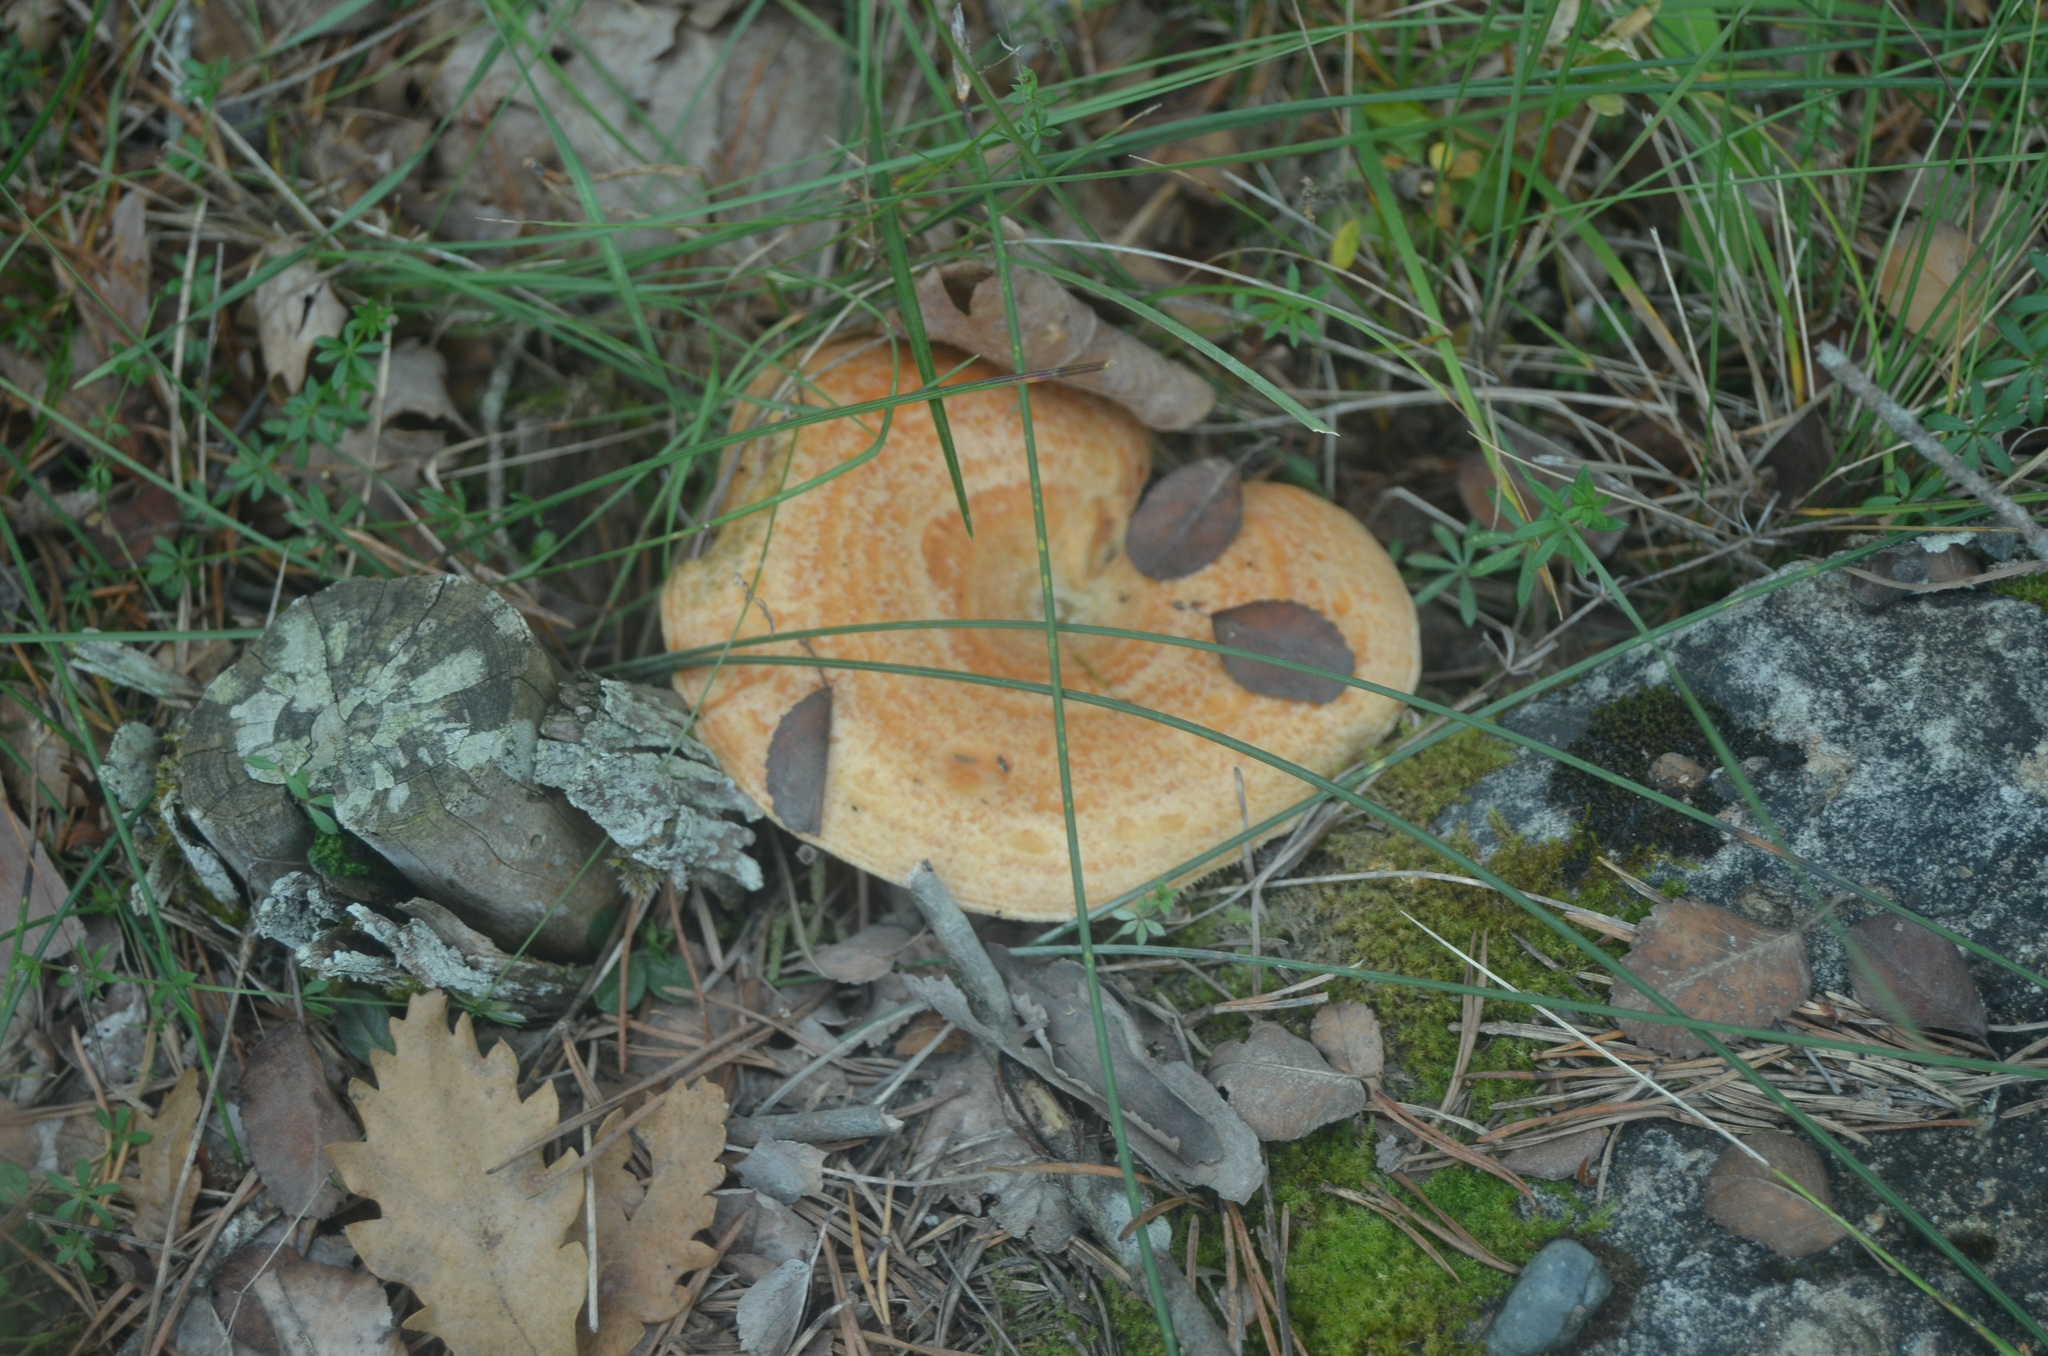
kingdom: Fungi
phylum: Basidiomycota
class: Agaricomycetes
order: Russulales
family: Russulaceae
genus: Lactarius
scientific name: Lactarius deliciosus
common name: Saffron milk-cap
